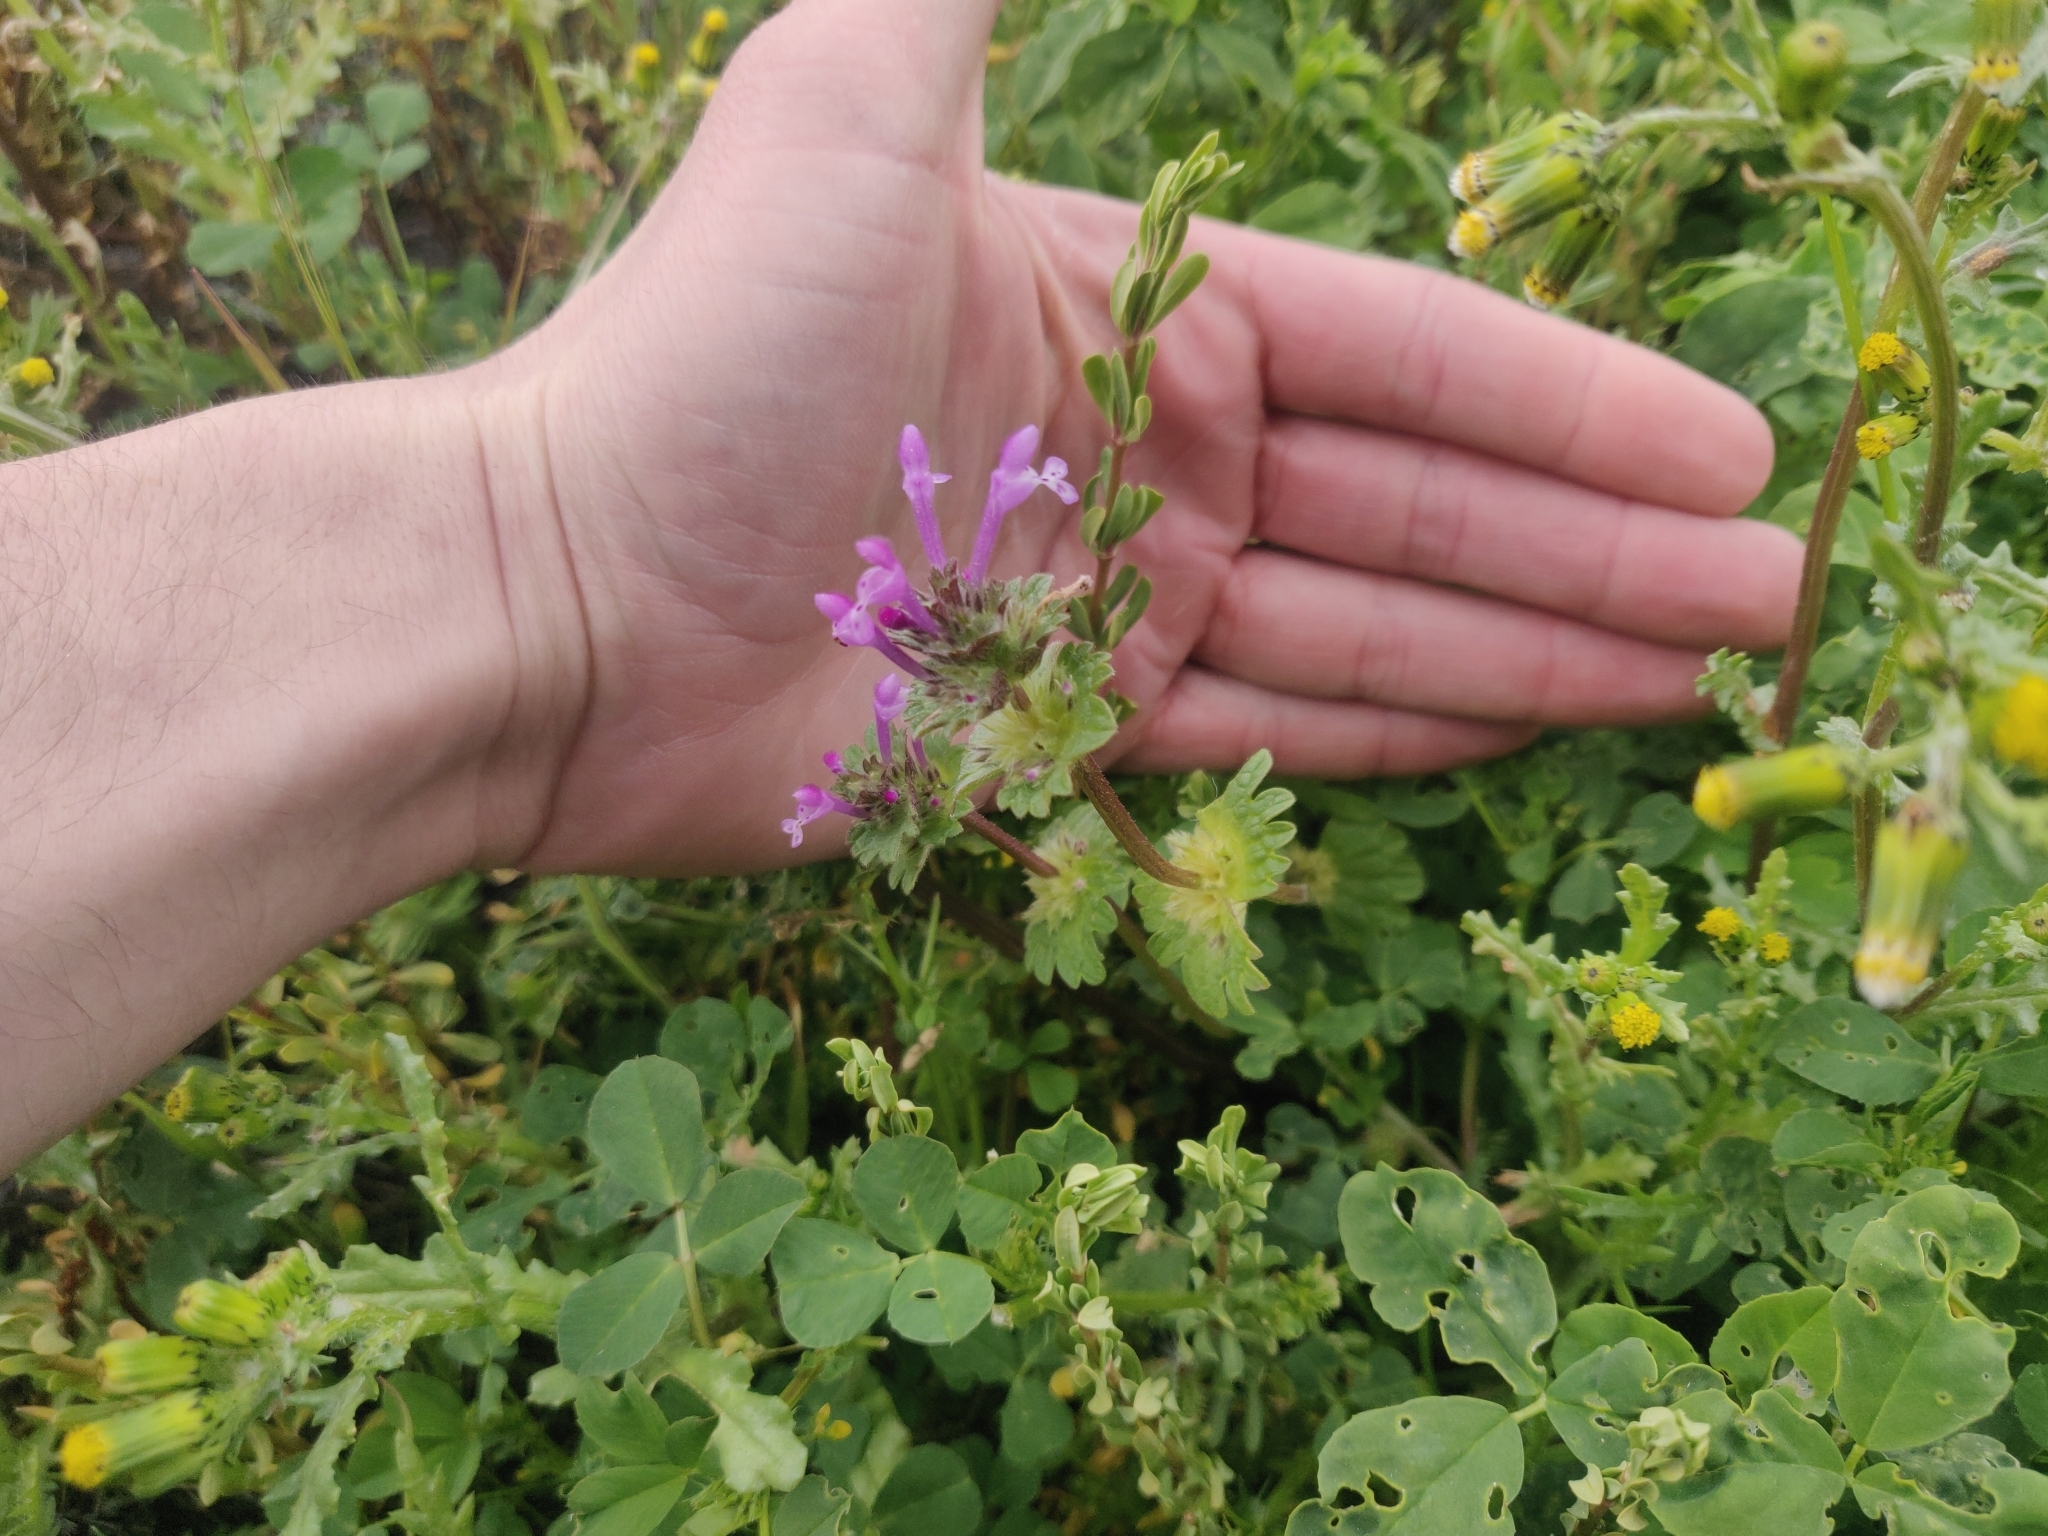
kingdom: Plantae
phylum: Tracheophyta
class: Magnoliopsida
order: Lamiales
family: Lamiaceae
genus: Lamium
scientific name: Lamium amplexicaule
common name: Henbit dead-nettle
